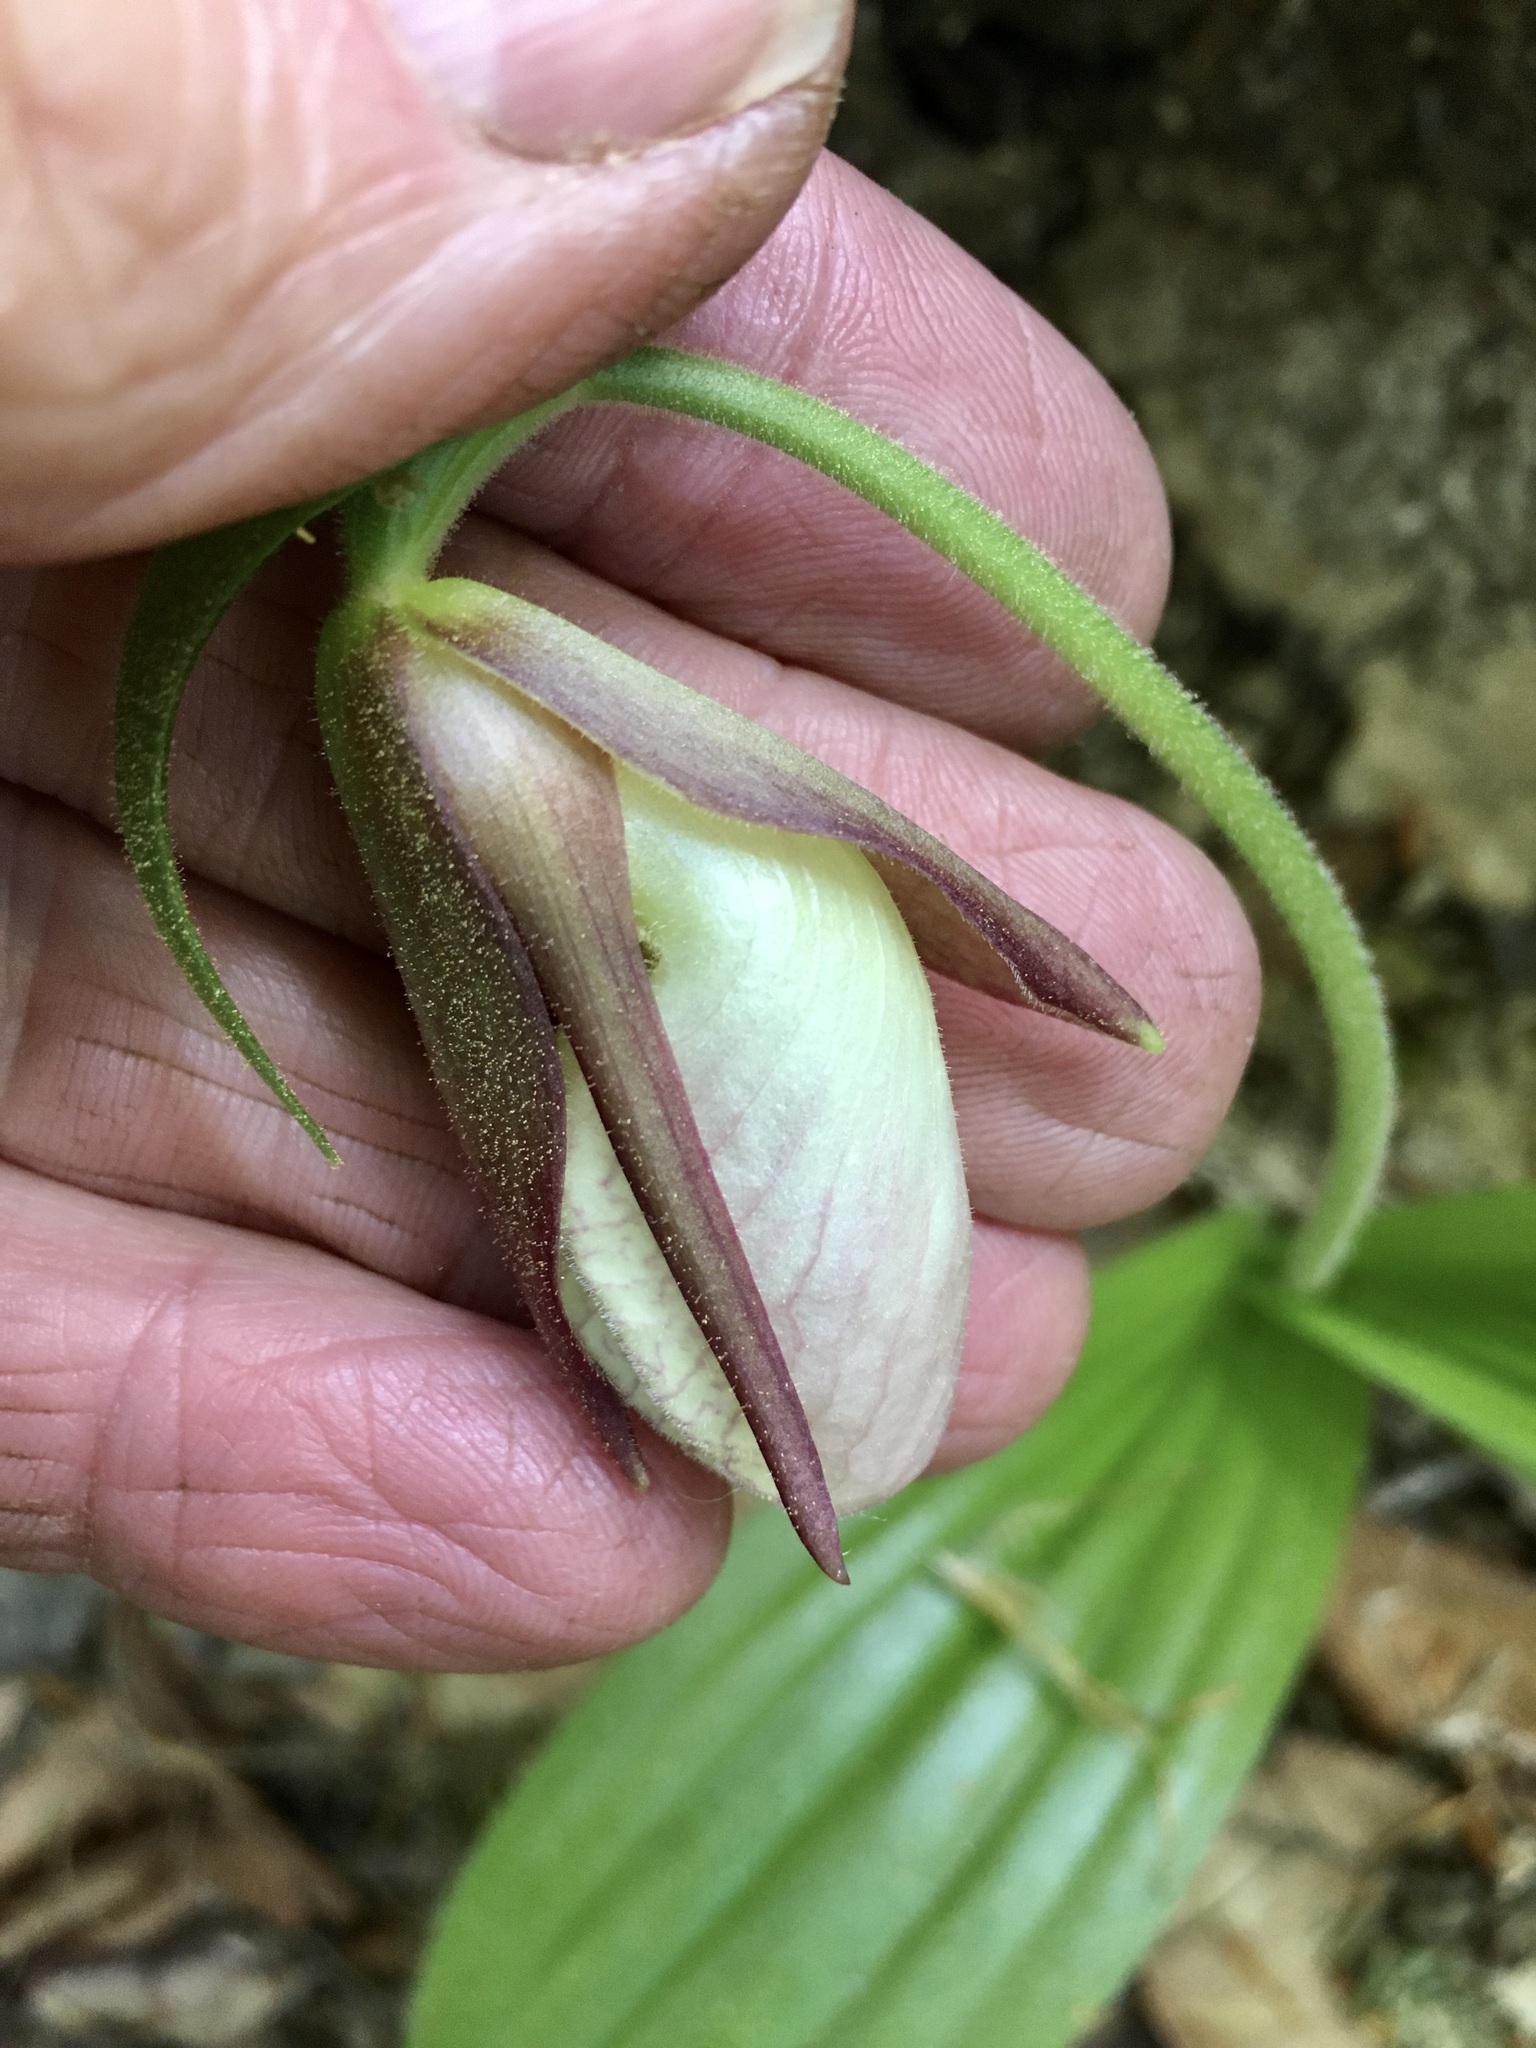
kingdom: Plantae
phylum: Tracheophyta
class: Liliopsida
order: Asparagales
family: Orchidaceae
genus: Cypripedium
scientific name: Cypripedium acaule
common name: Pink lady's-slipper
